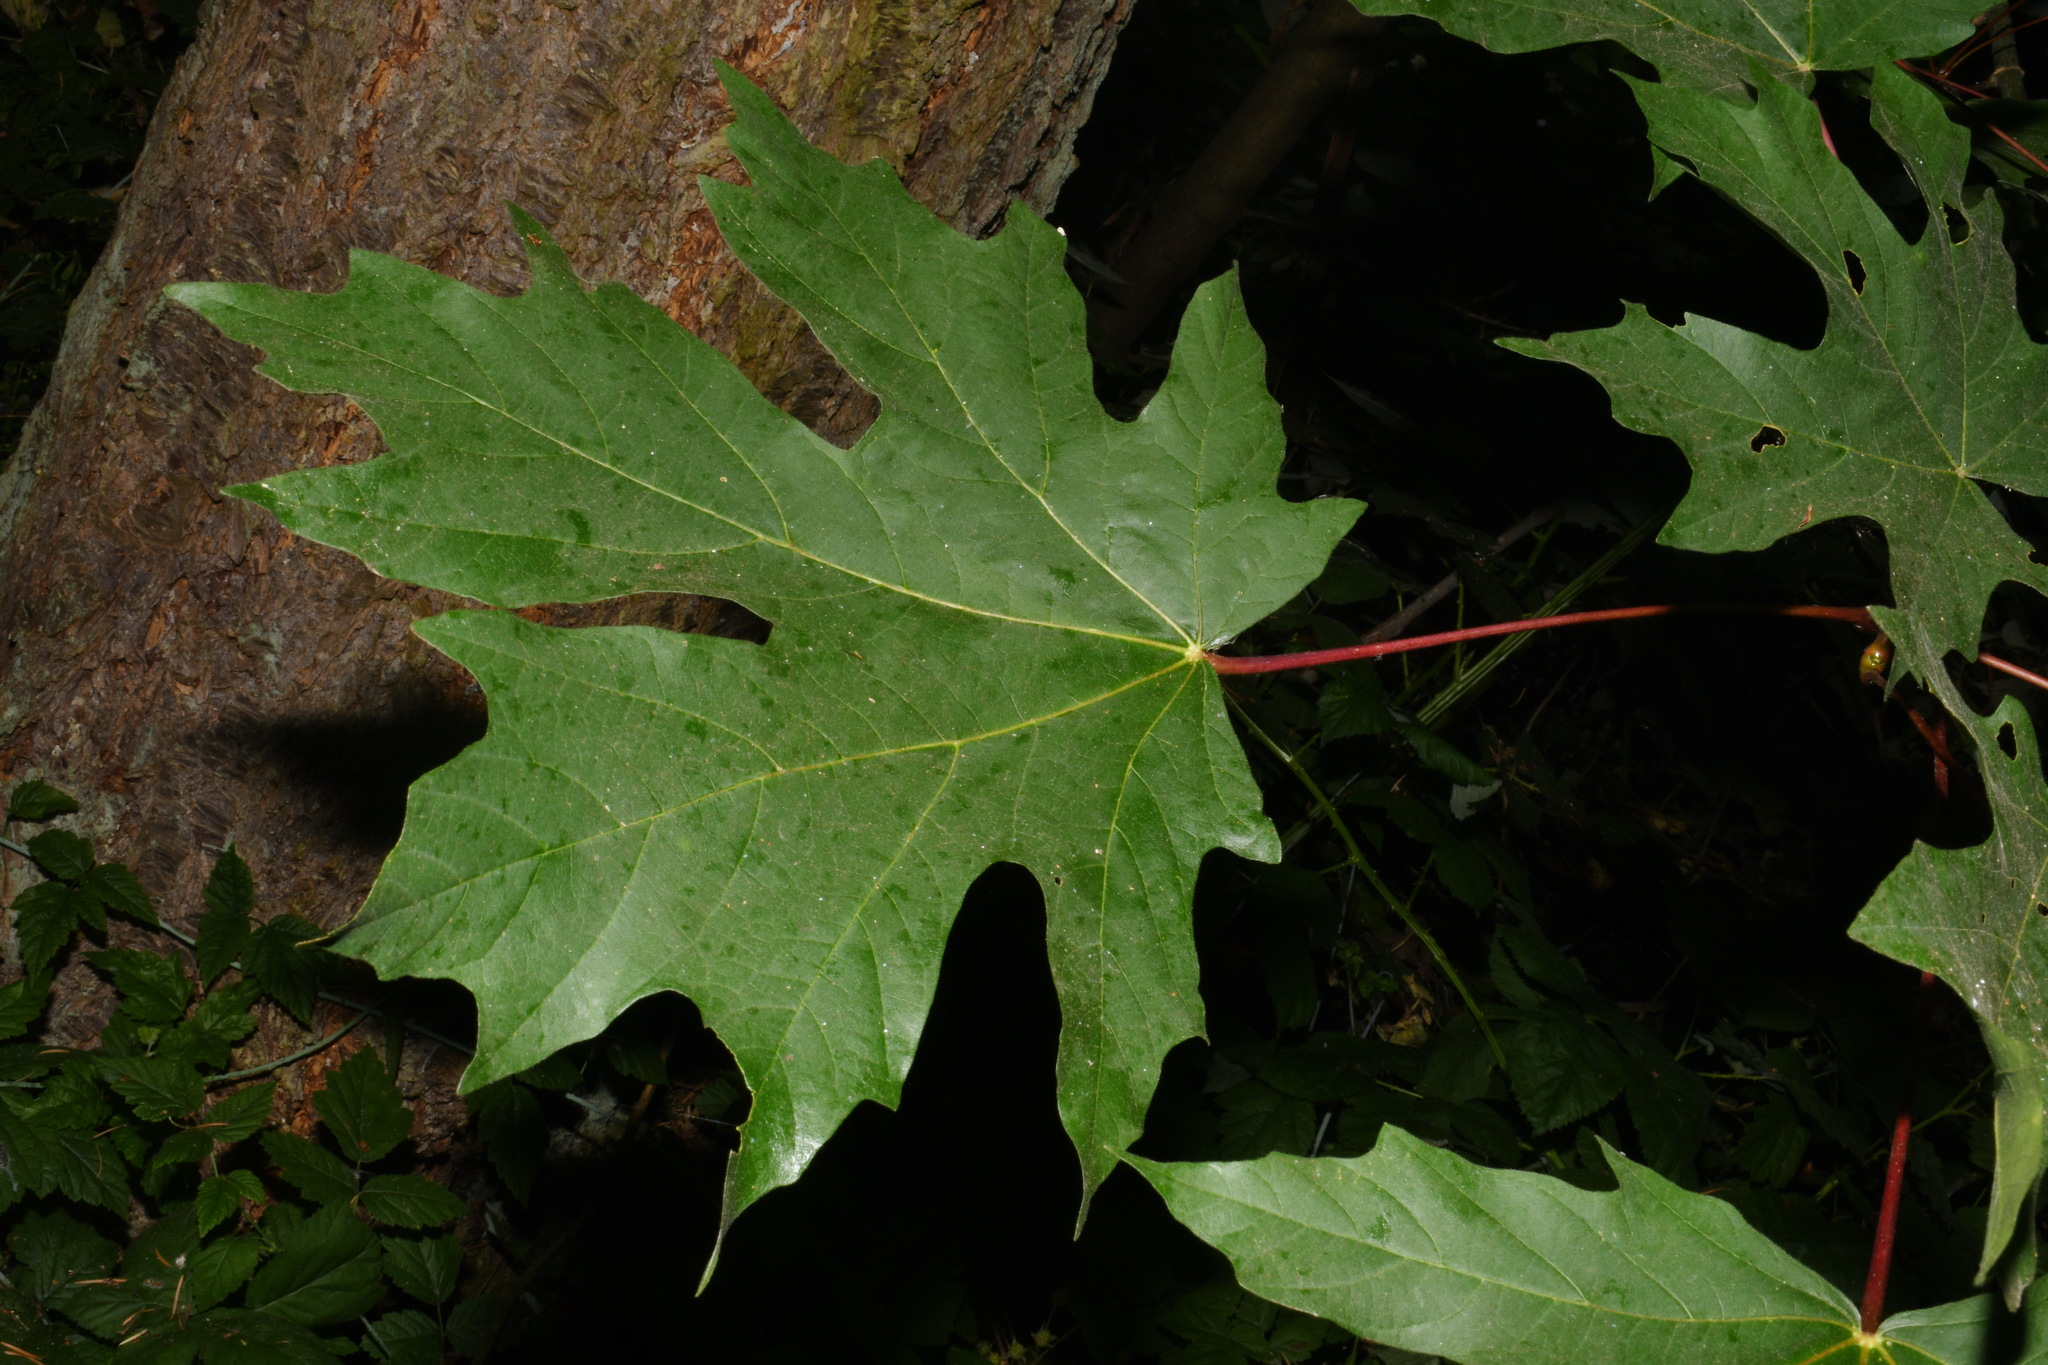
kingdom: Plantae
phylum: Tracheophyta
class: Magnoliopsida
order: Sapindales
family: Sapindaceae
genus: Acer
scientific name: Acer macrophyllum
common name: Oregon maple
